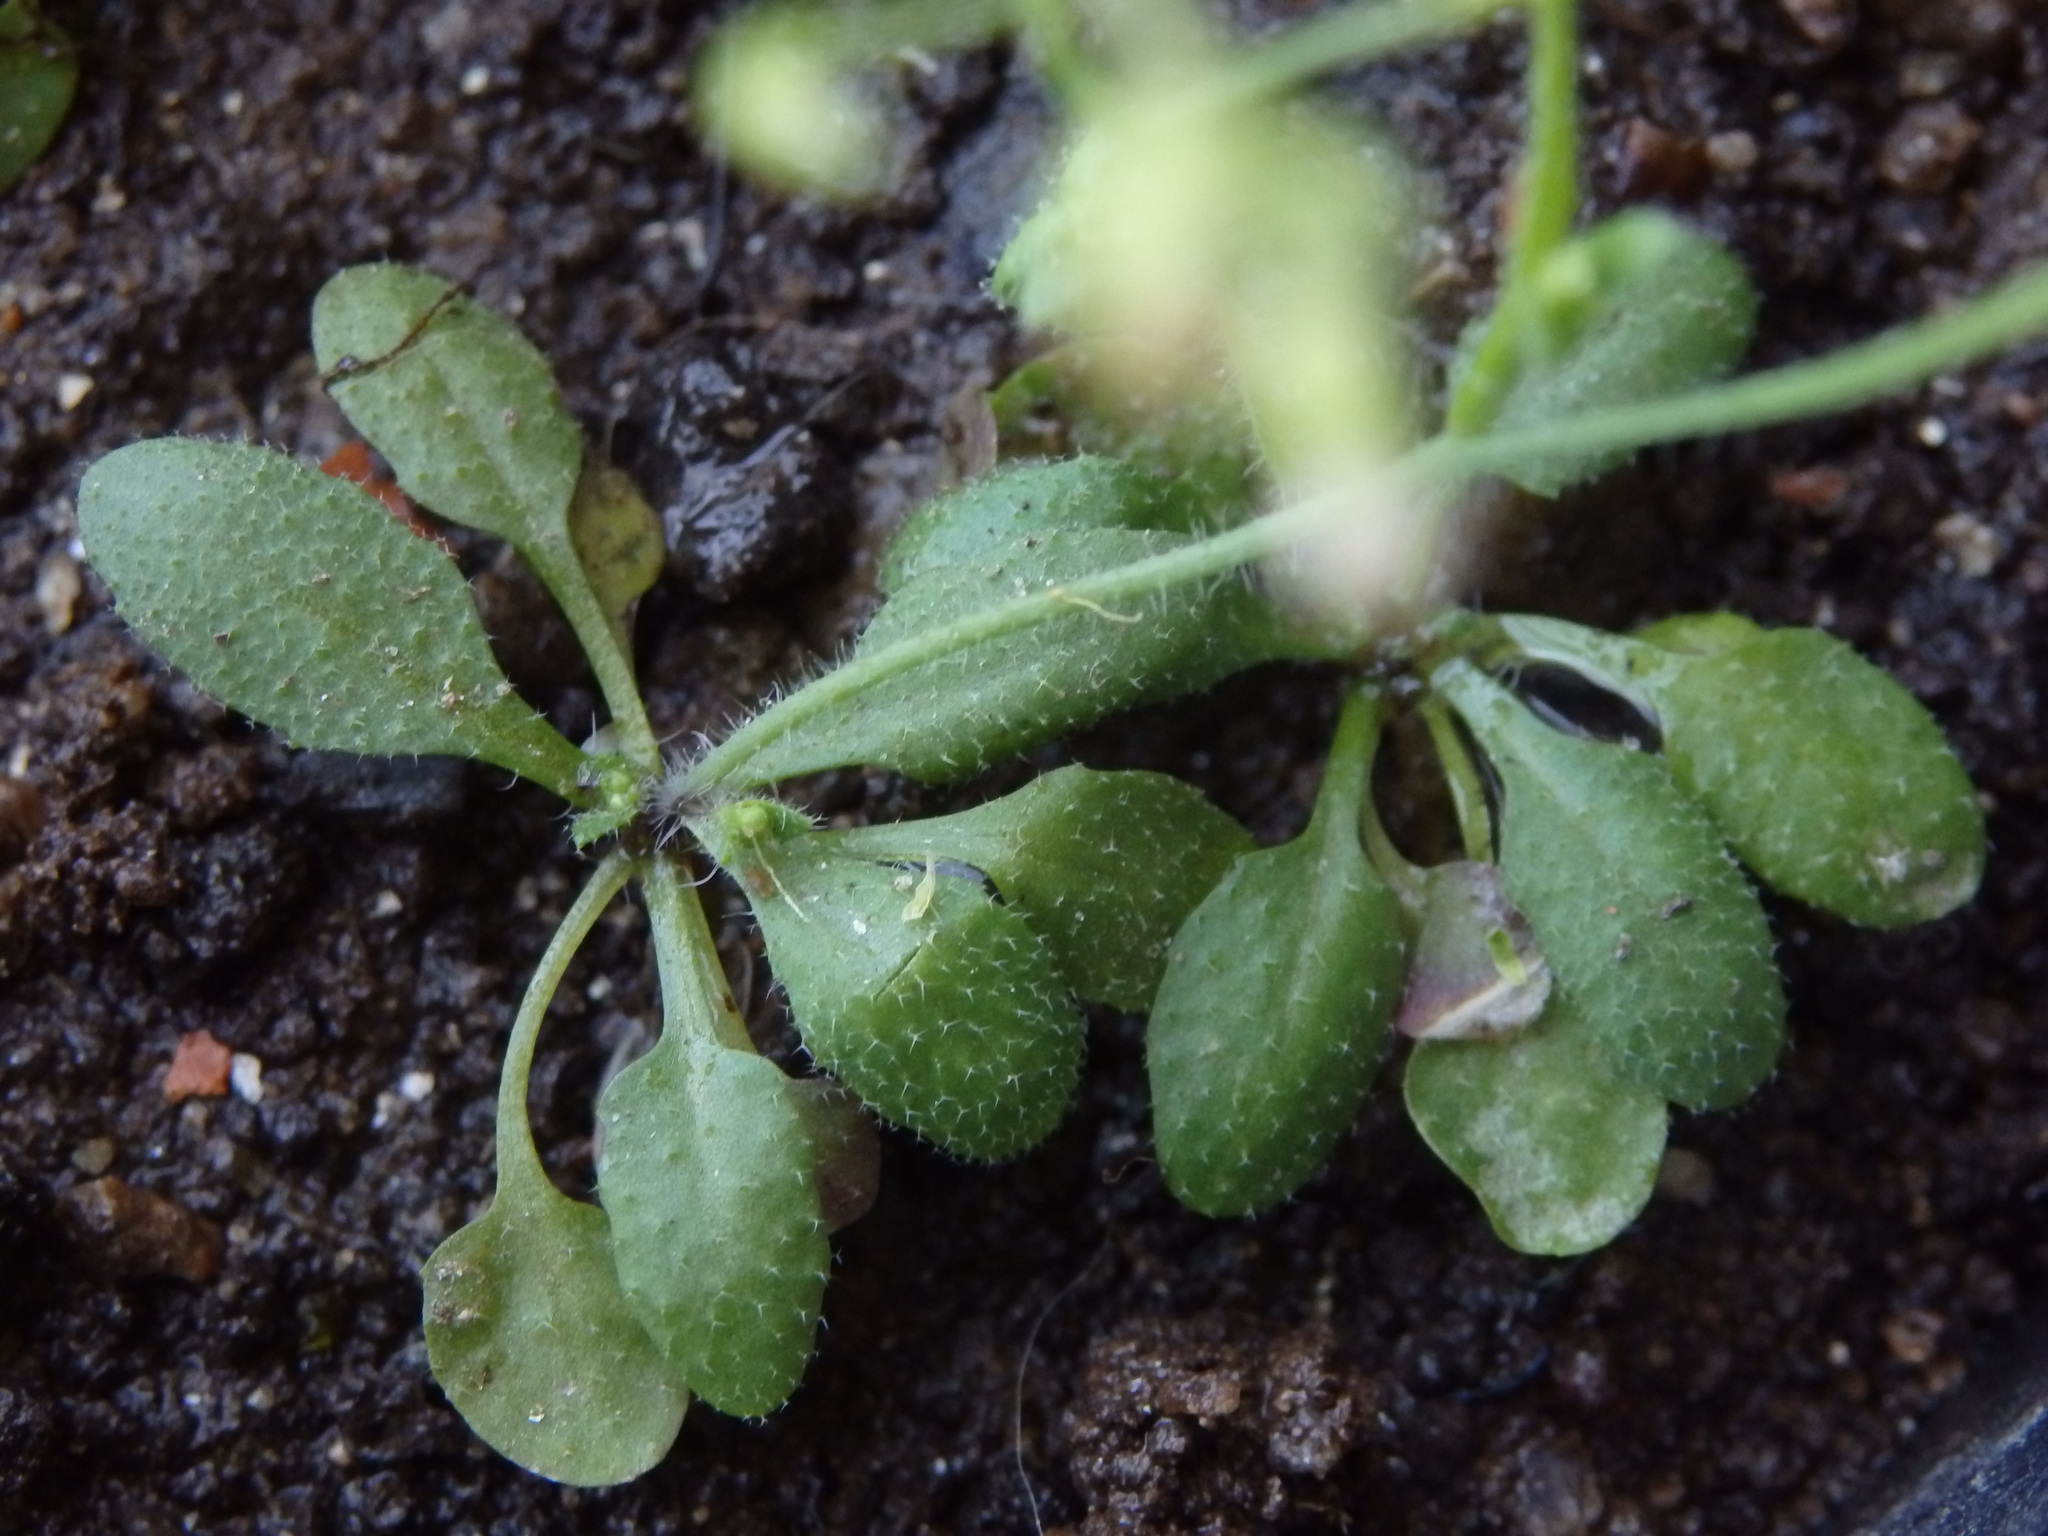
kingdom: Plantae
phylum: Tracheophyta
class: Magnoliopsida
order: Brassicales
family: Brassicaceae
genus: Arabidopsis
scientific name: Arabidopsis thaliana
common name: Thale cress
